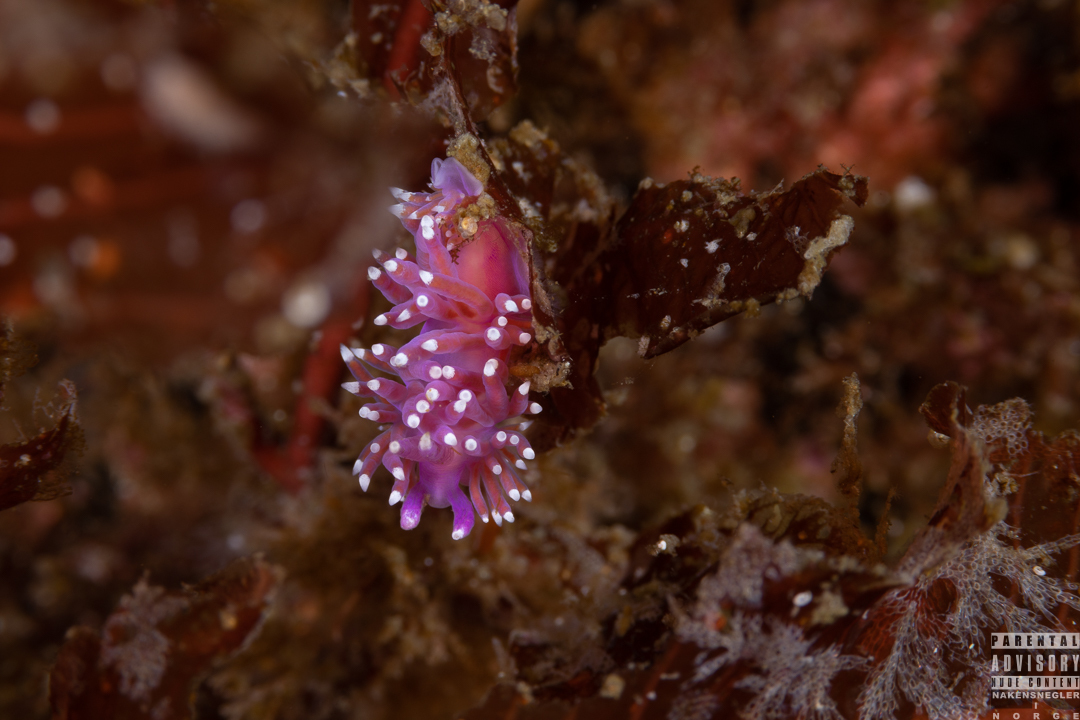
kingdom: Animalia
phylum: Mollusca
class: Gastropoda
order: Nudibranchia
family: Flabellinidae
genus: Edmundsella
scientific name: Edmundsella pedata
